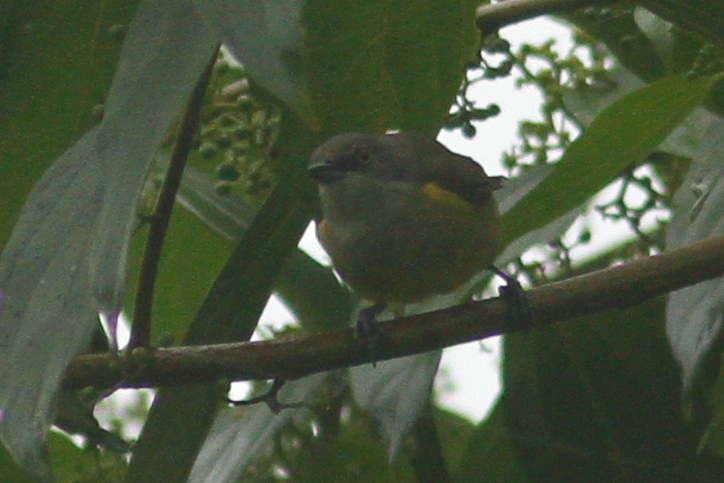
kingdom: Animalia
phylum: Chordata
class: Aves
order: Passeriformes
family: Thraupidae
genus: Dacnis
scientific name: Dacnis lineata
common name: Black-faced dacnis
